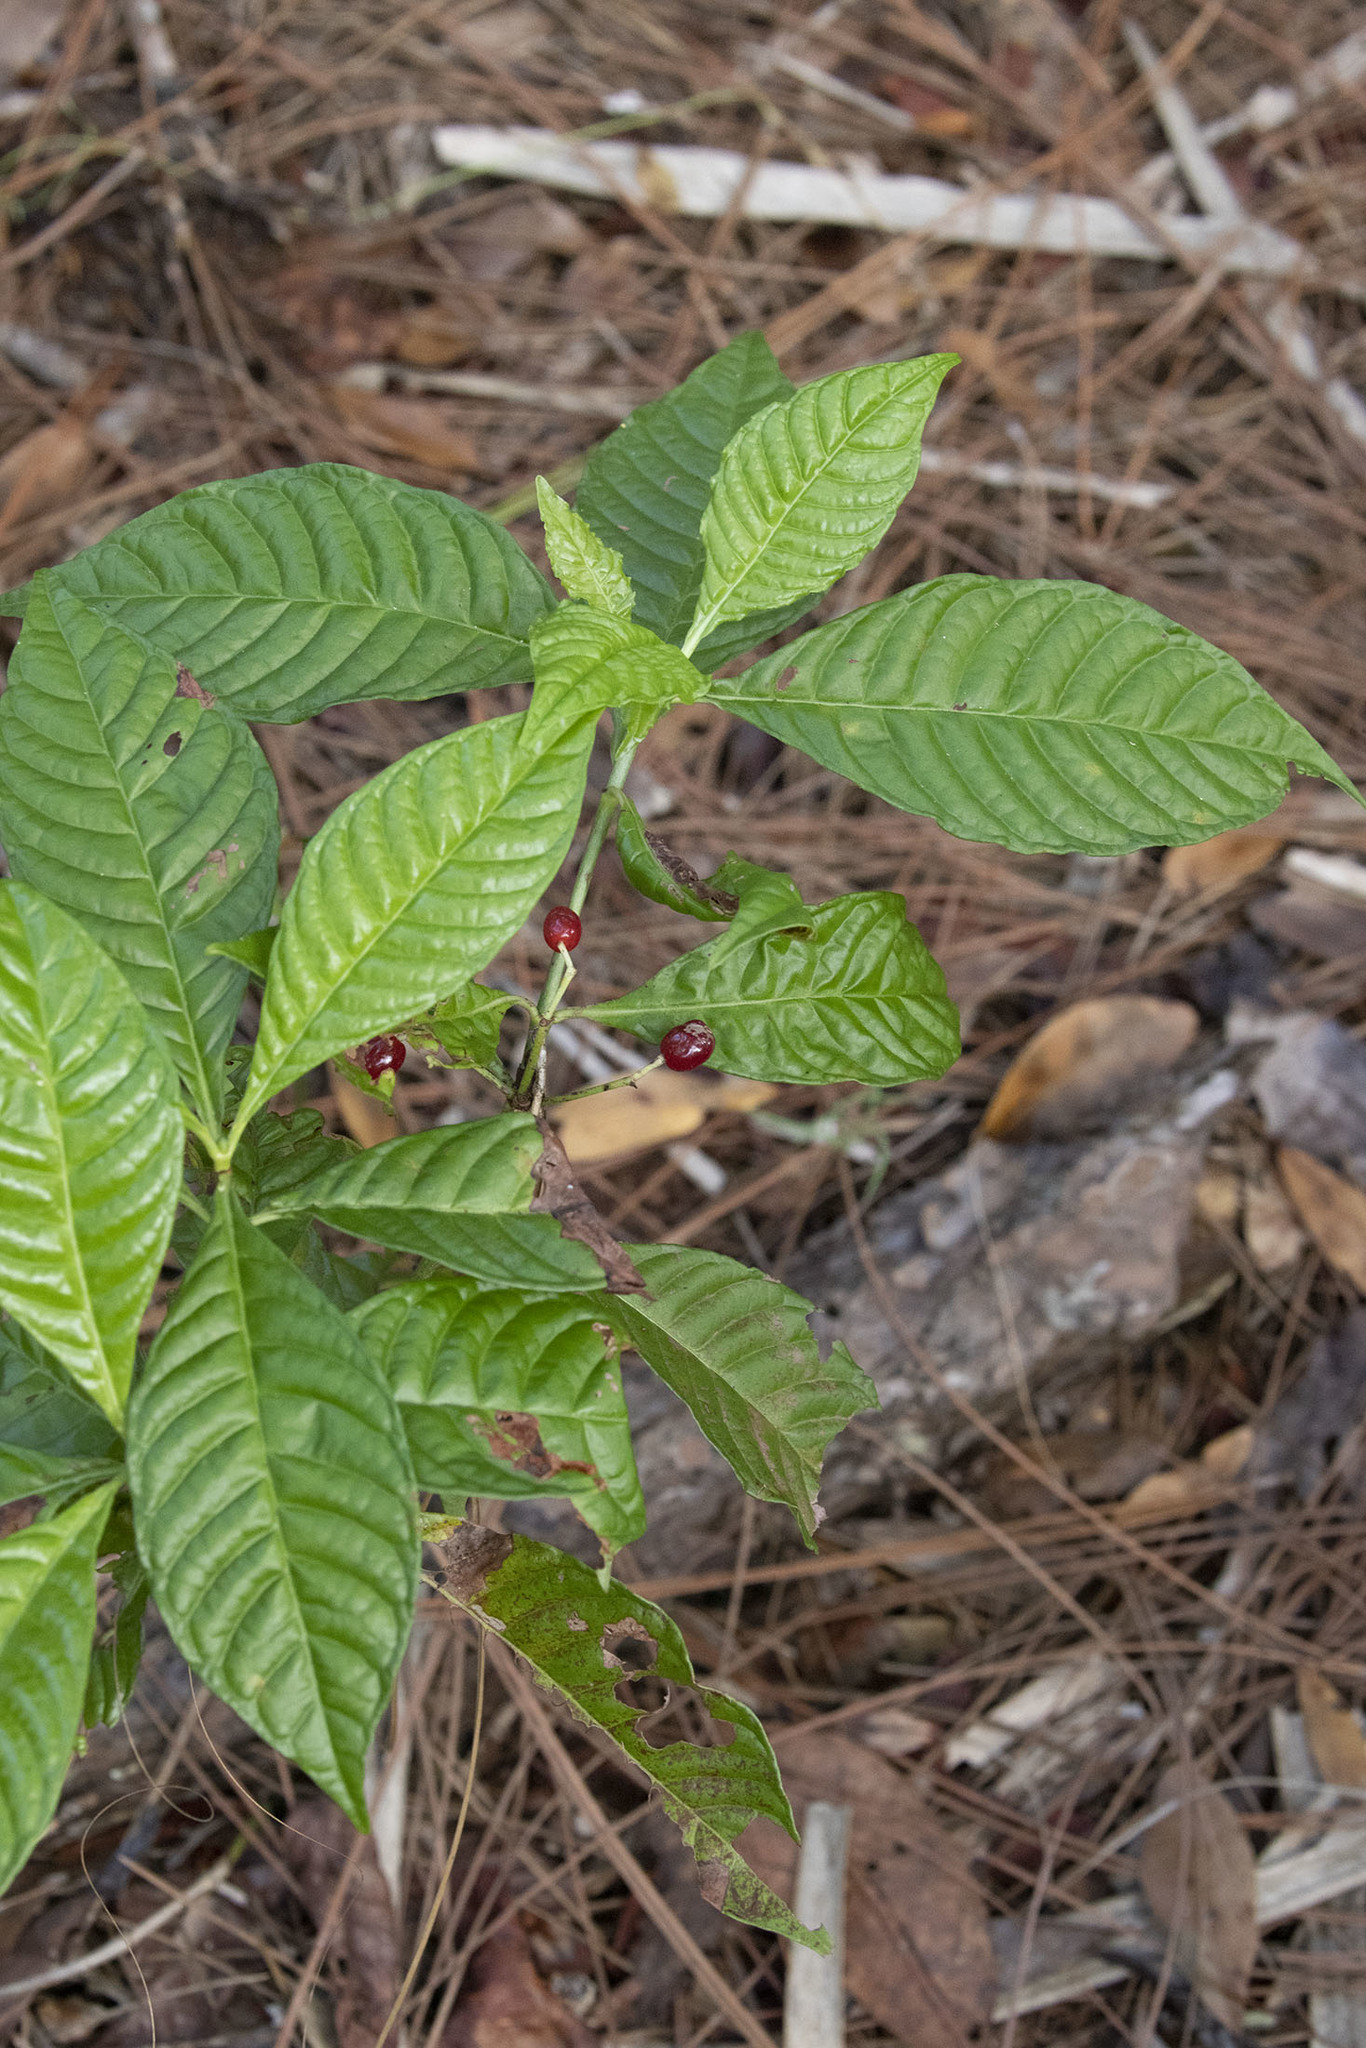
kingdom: Plantae
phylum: Tracheophyta
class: Magnoliopsida
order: Gentianales
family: Rubiaceae
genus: Psychotria
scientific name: Psychotria nervosa
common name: Bastard cankerberry
